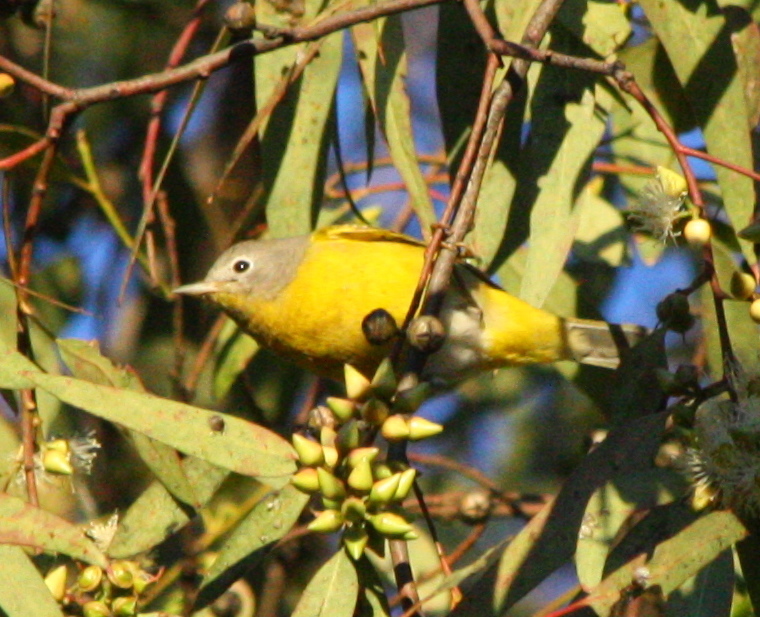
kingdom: Animalia
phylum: Chordata
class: Aves
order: Passeriformes
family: Parulidae
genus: Leiothlypis
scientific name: Leiothlypis ruficapilla
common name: Nashville warbler
